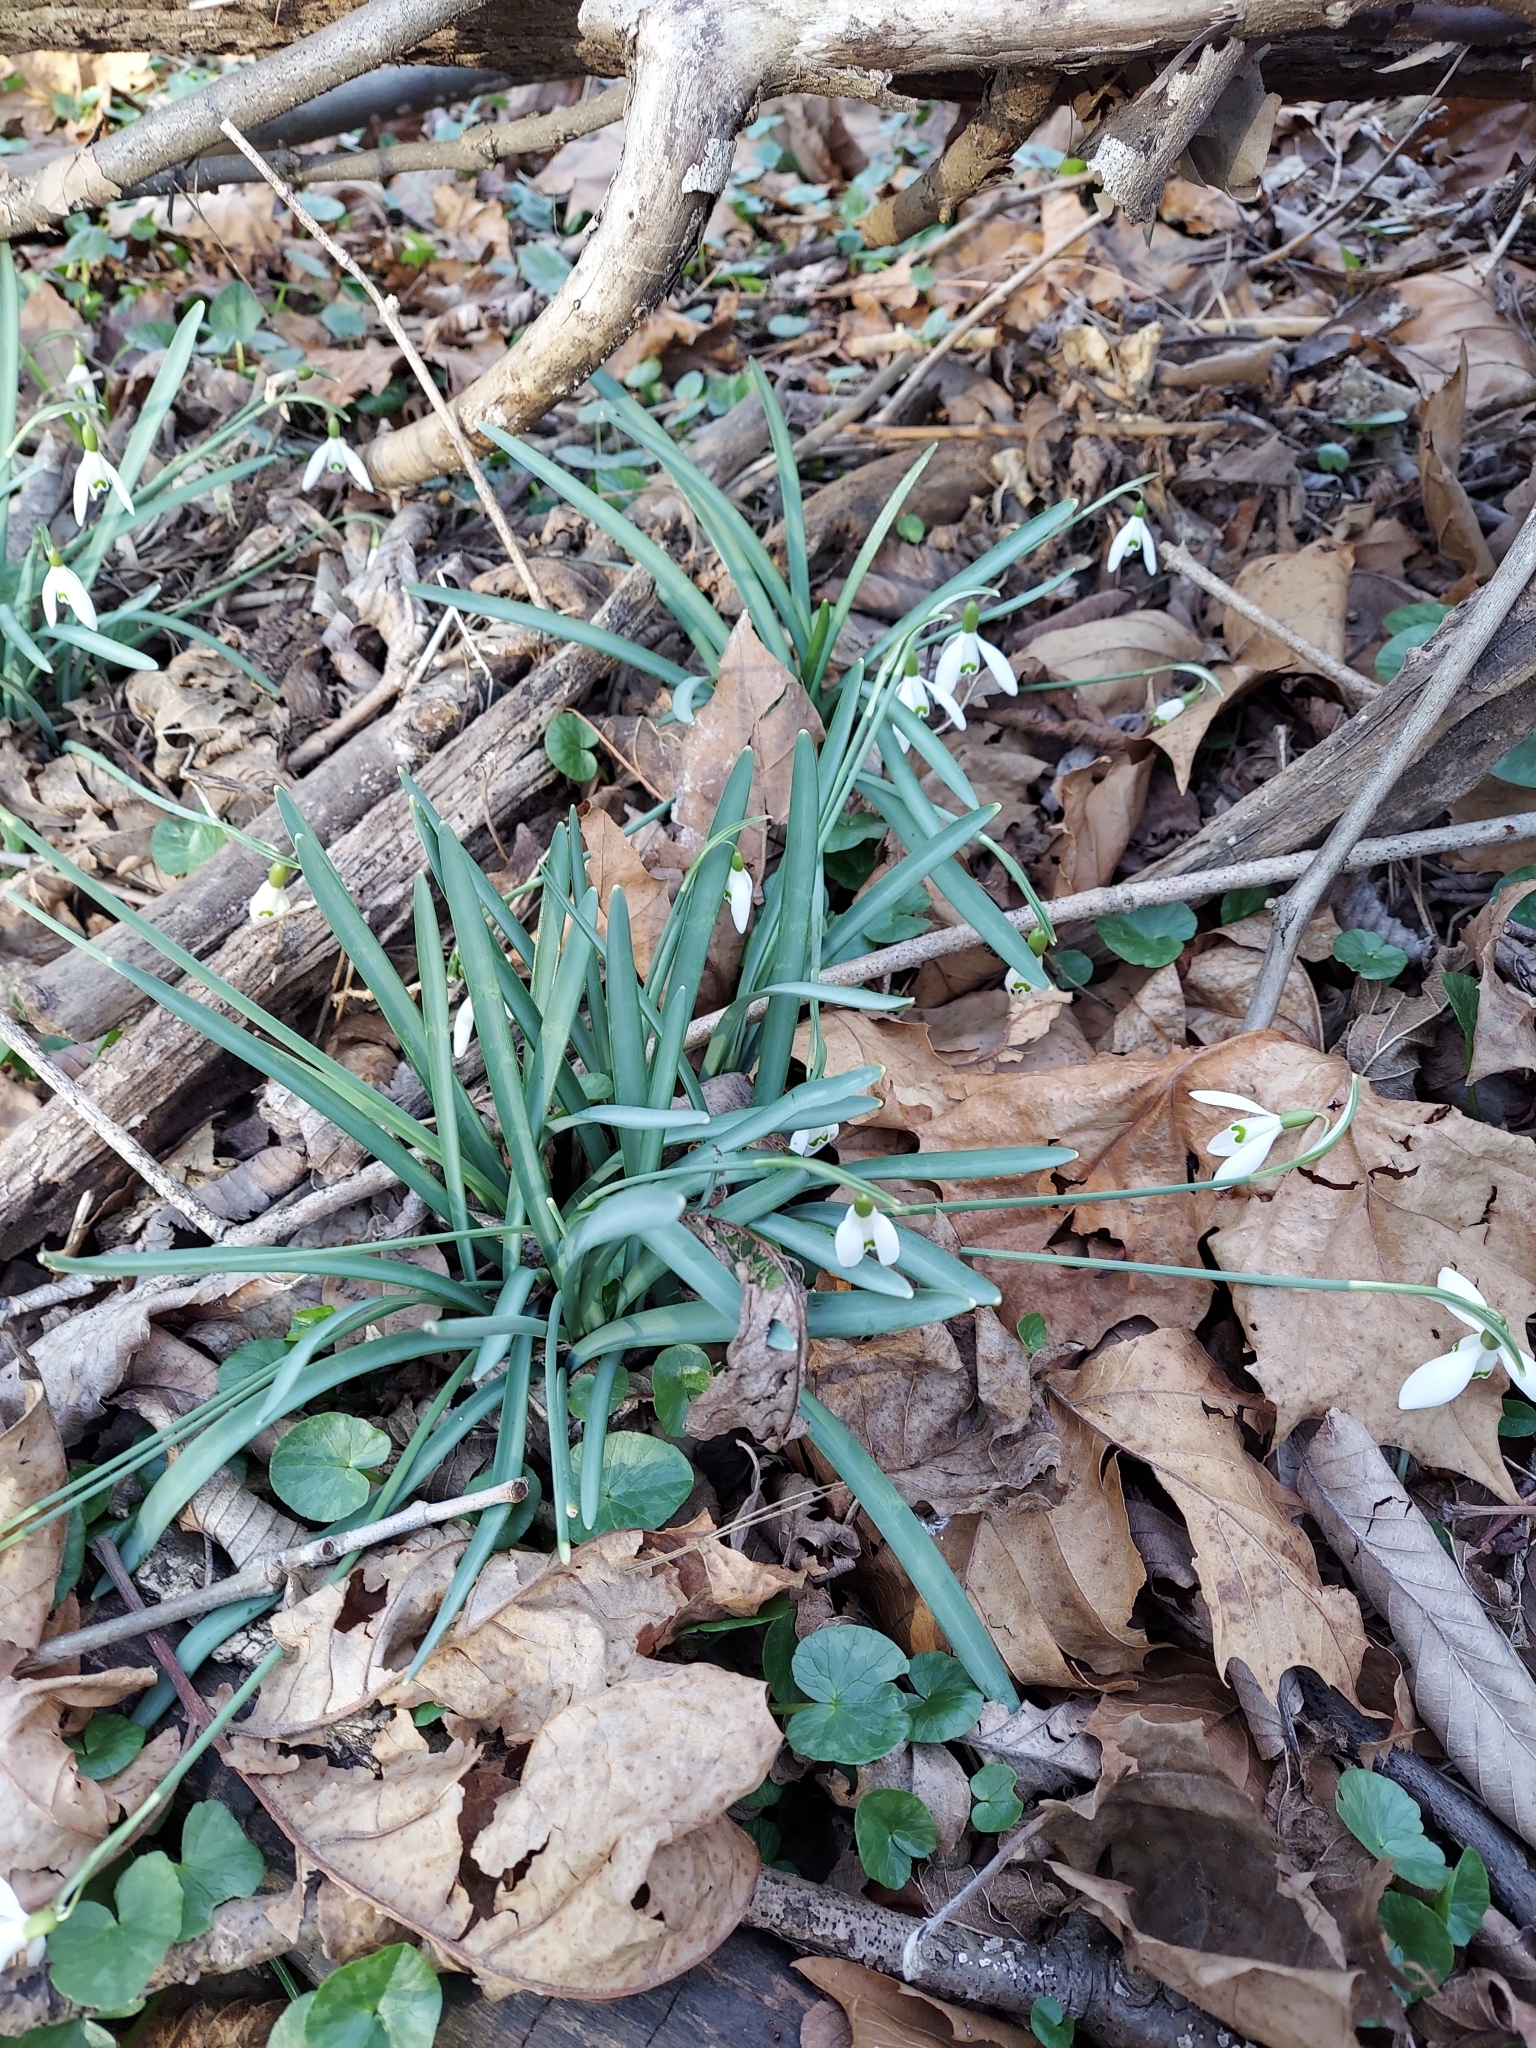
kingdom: Plantae
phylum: Tracheophyta
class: Liliopsida
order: Asparagales
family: Amaryllidaceae
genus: Galanthus
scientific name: Galanthus nivalis
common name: Snowdrop
